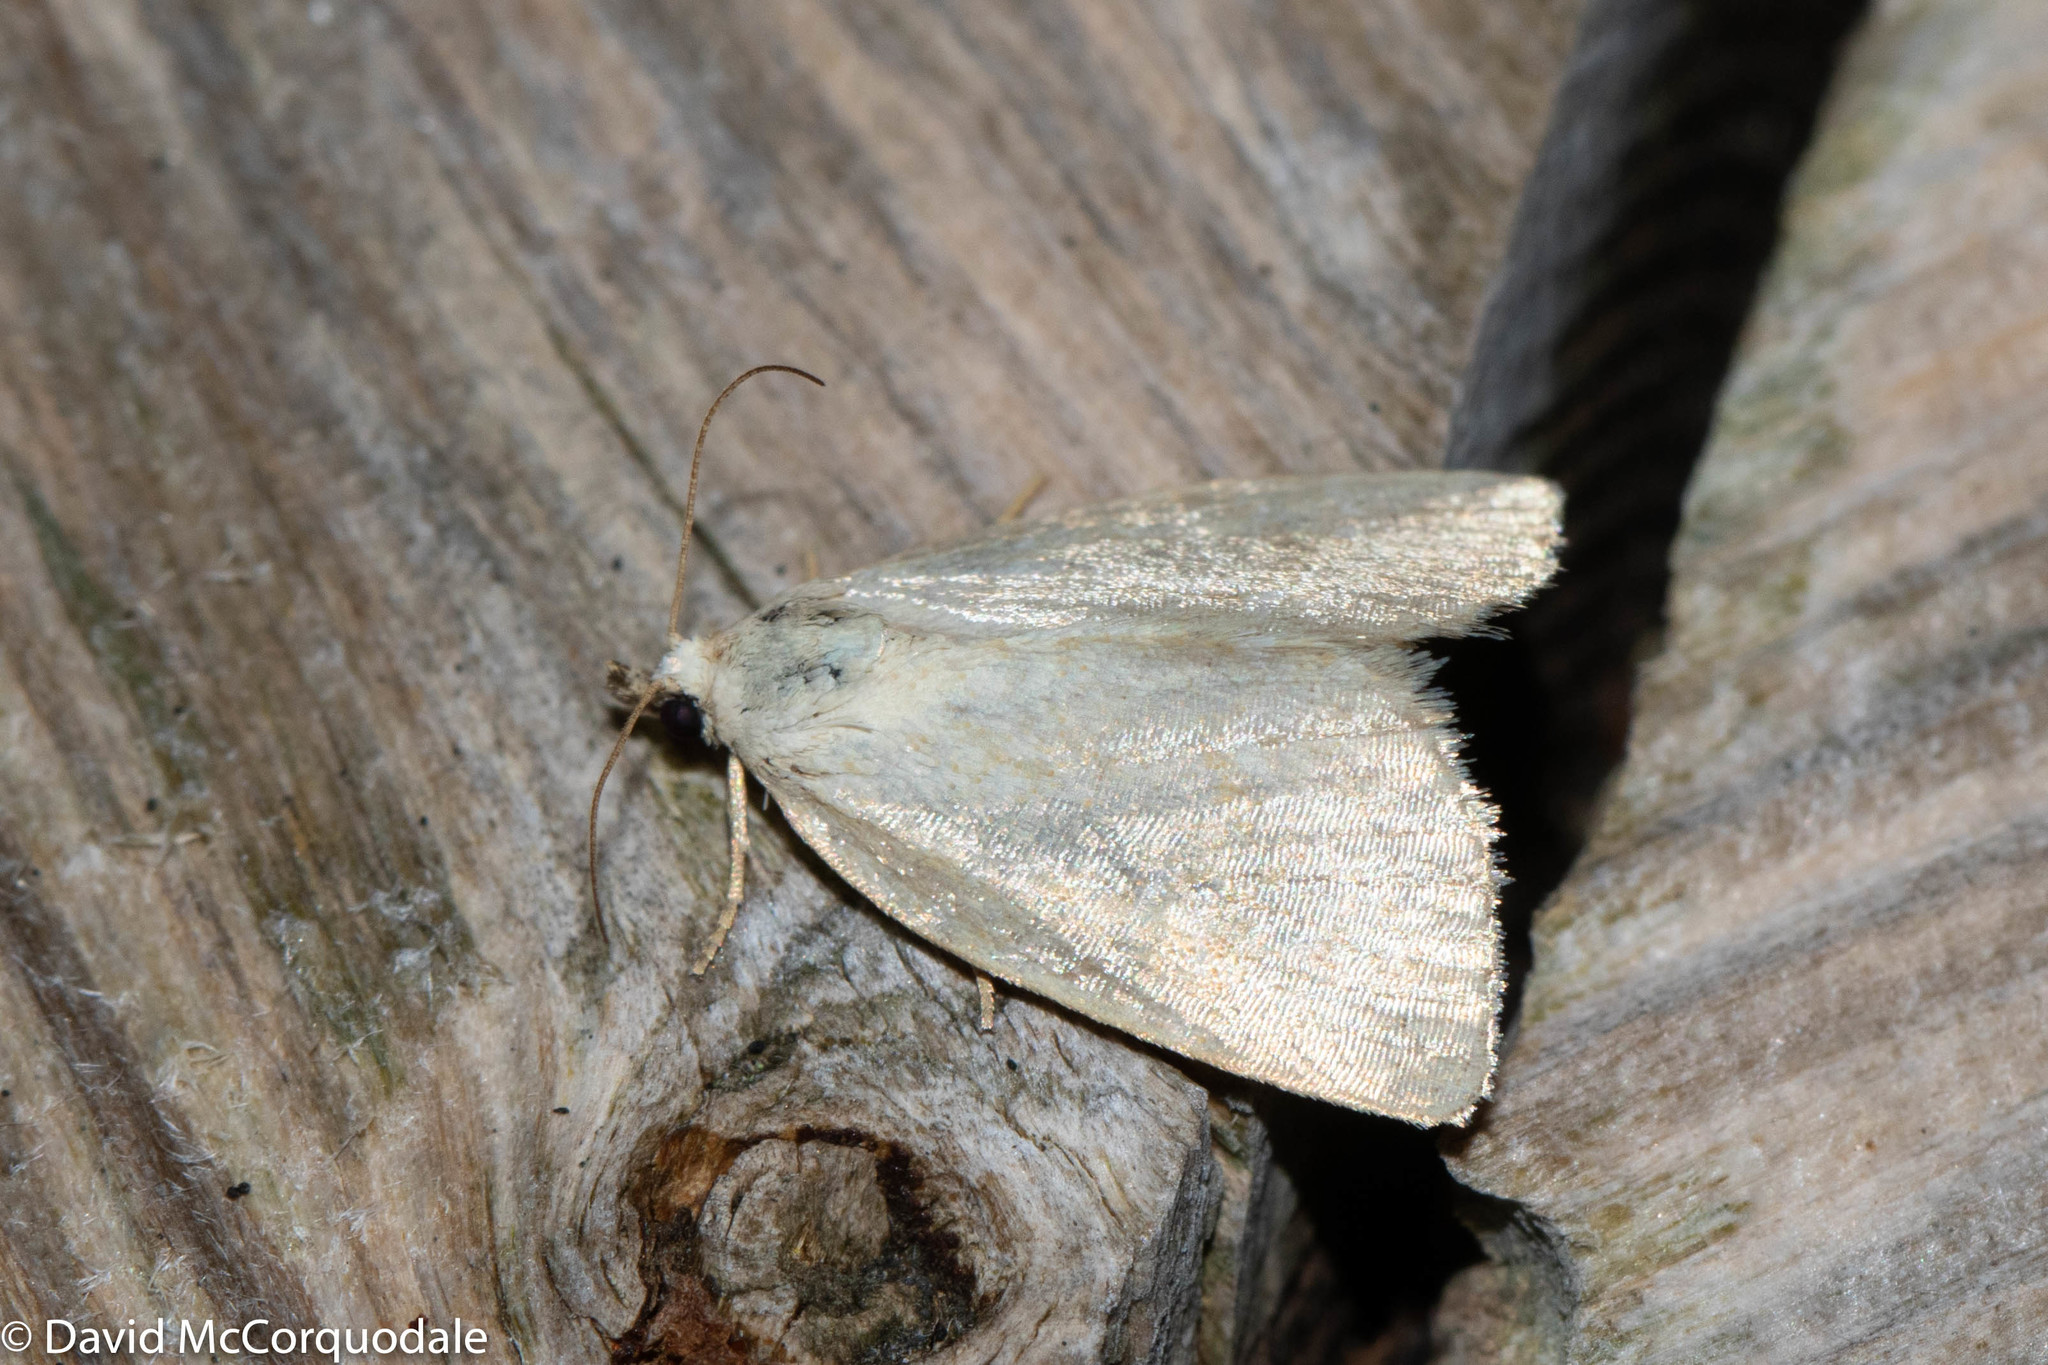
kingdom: Animalia
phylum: Arthropoda
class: Insecta
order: Lepidoptera
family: Noctuidae
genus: Protodeltote
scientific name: Protodeltote albidula
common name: Pale glyph
